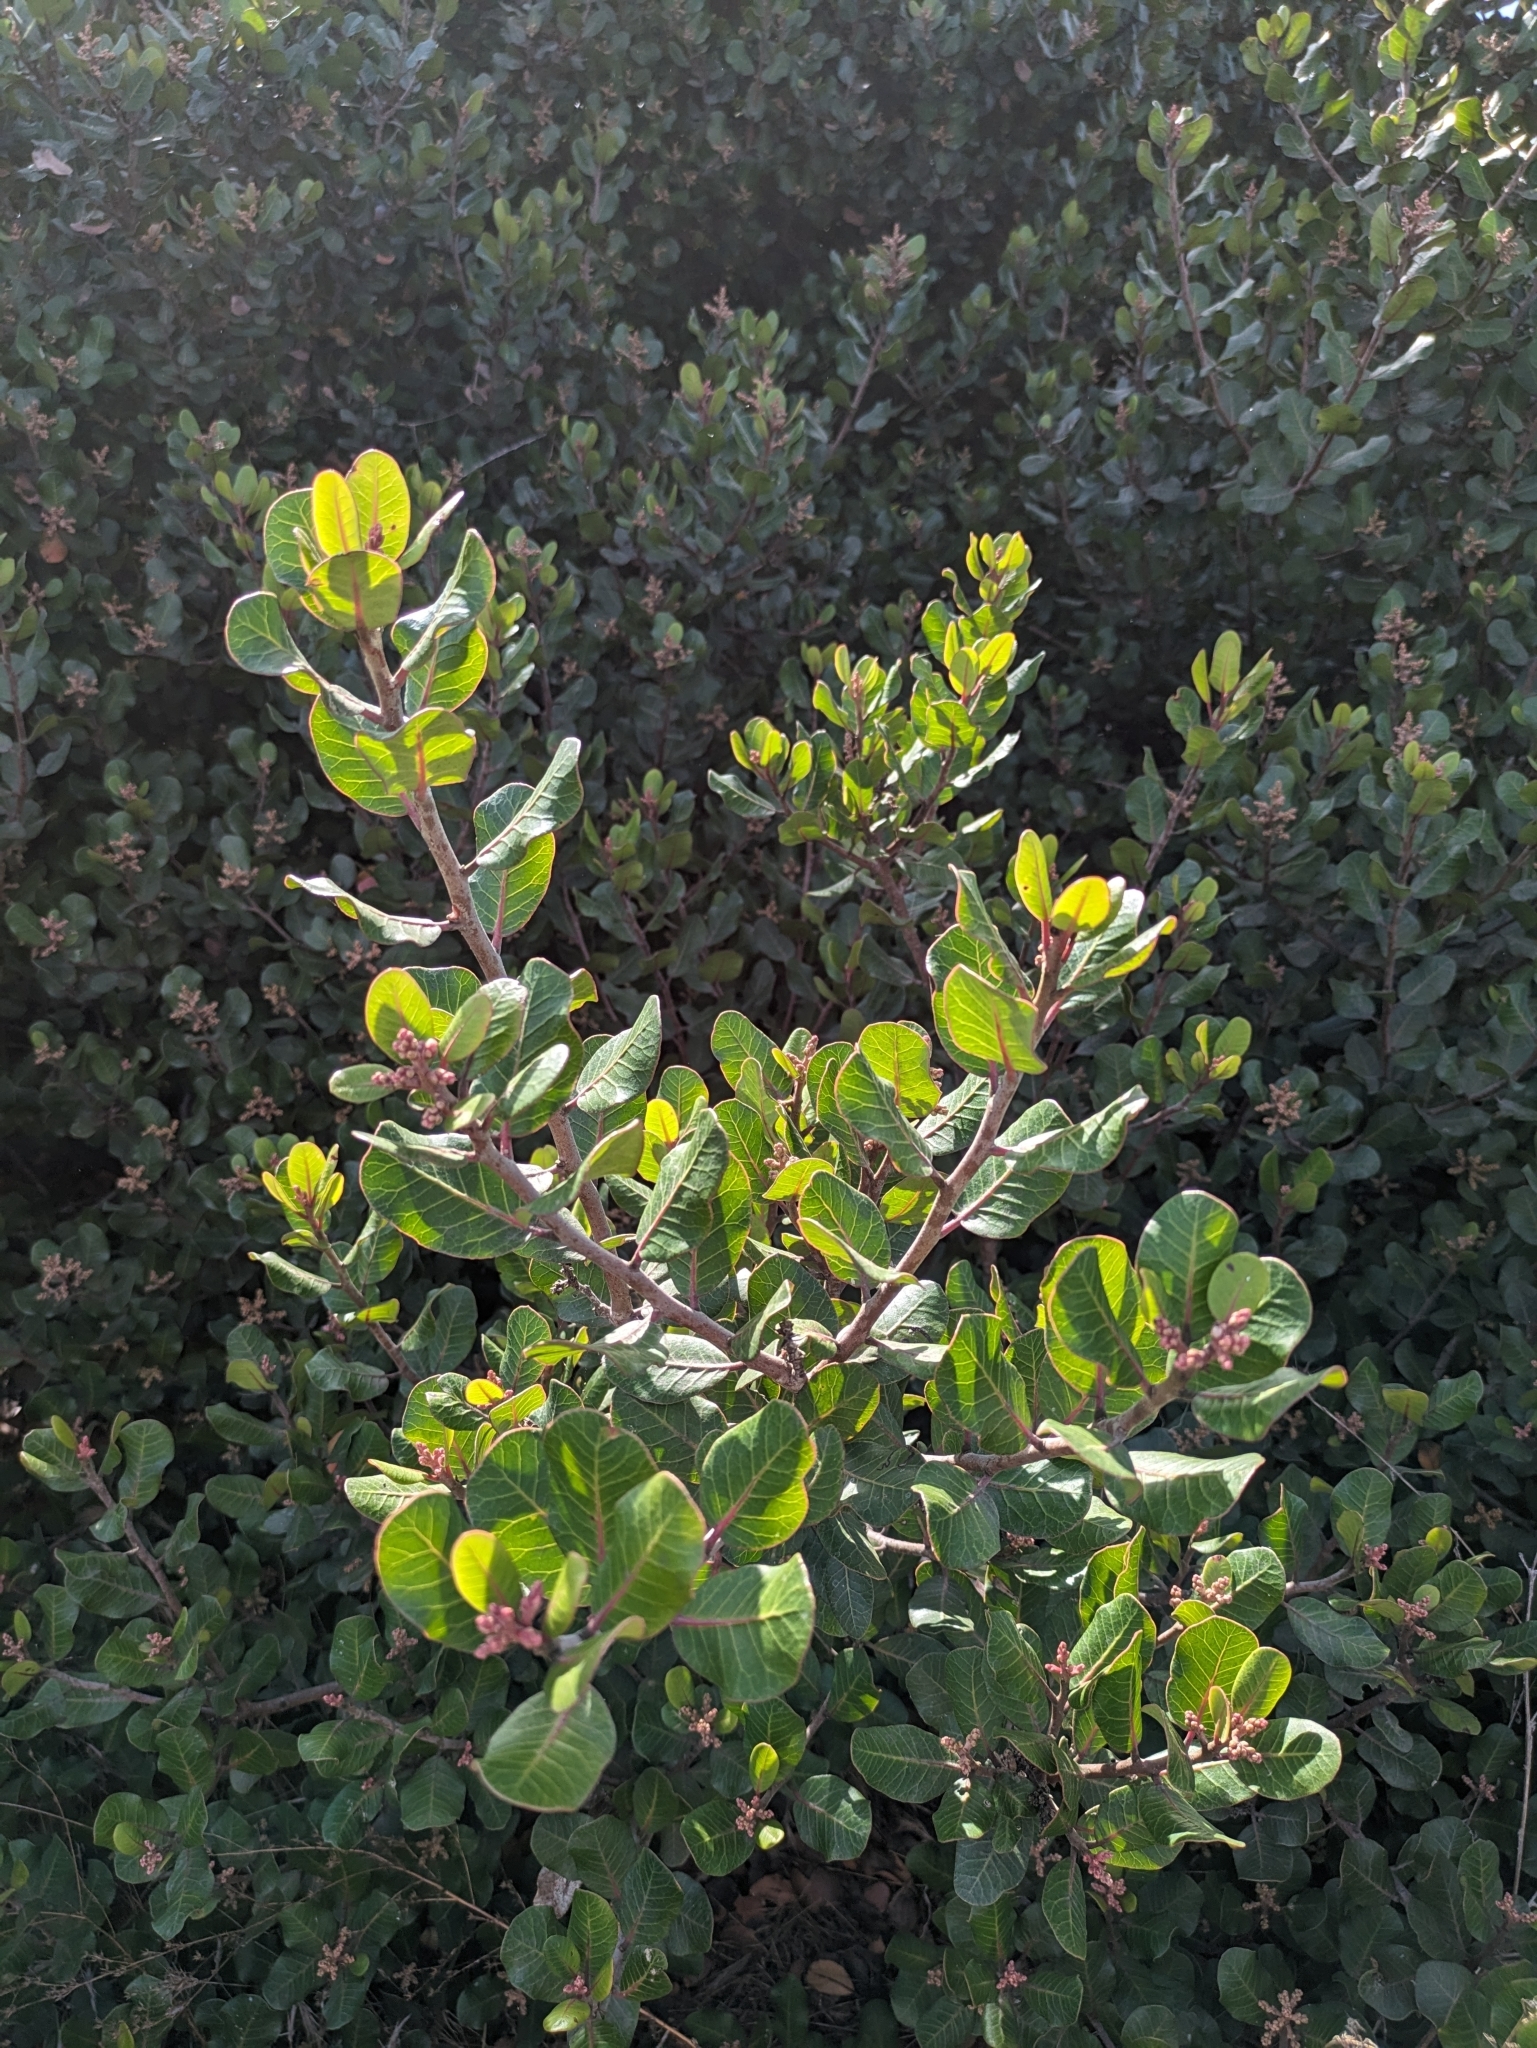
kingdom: Plantae
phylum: Tracheophyta
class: Magnoliopsida
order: Sapindales
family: Anacardiaceae
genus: Rhus
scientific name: Rhus integrifolia
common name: Lemonade sumac
